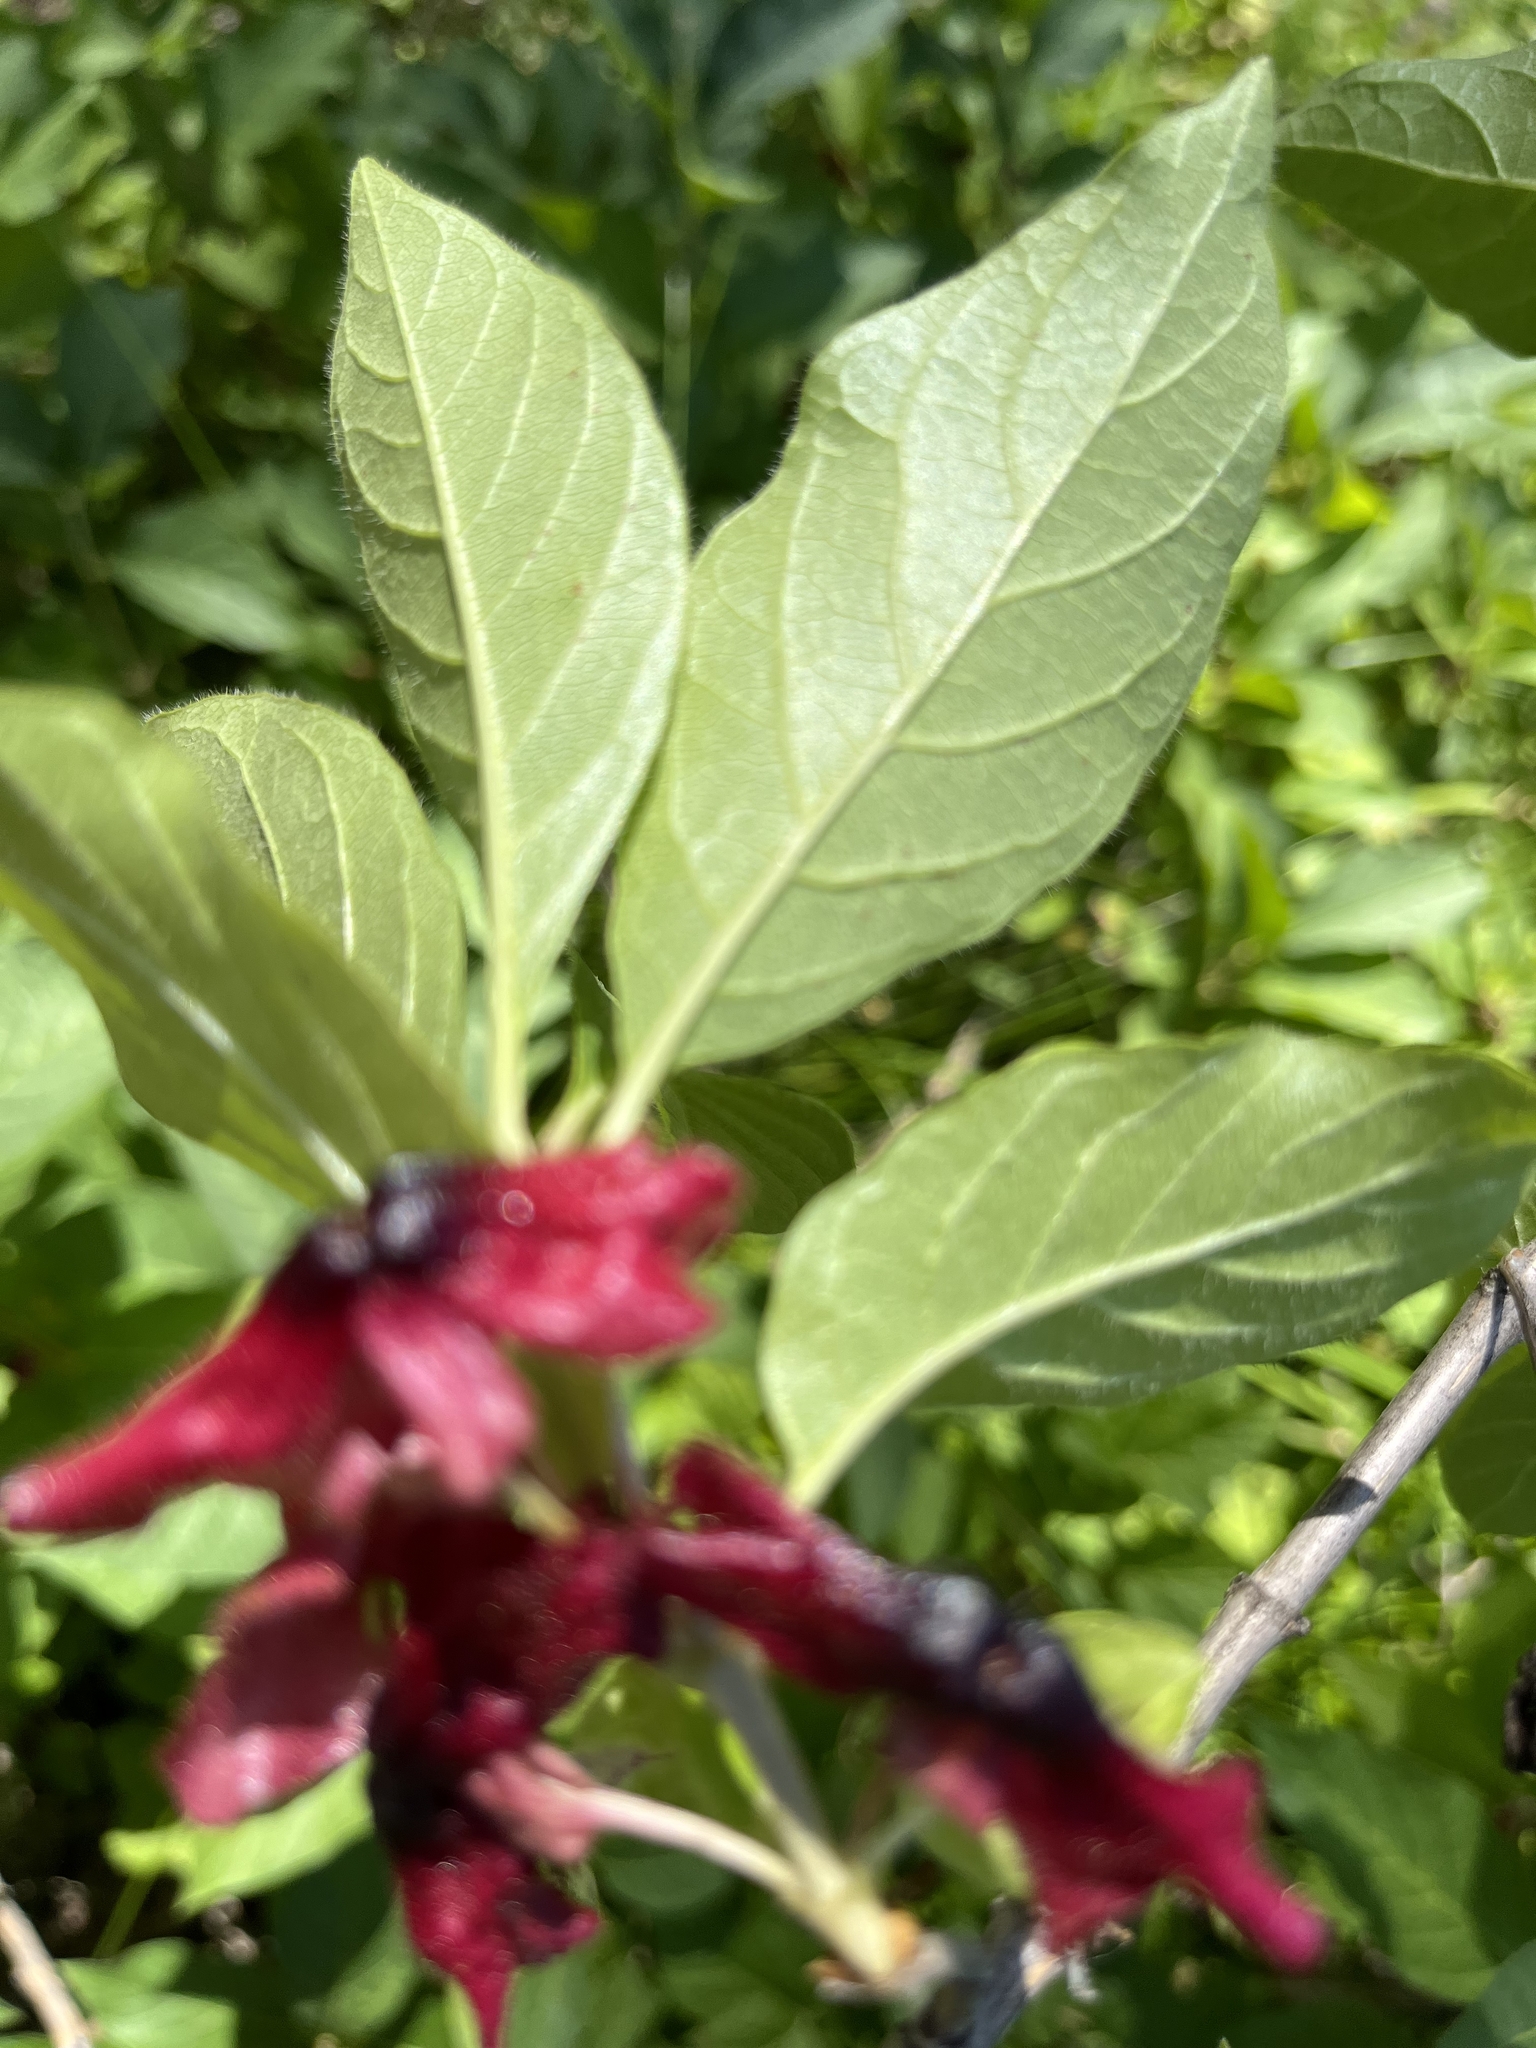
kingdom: Plantae
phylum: Tracheophyta
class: Magnoliopsida
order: Dipsacales
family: Caprifoliaceae
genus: Lonicera
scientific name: Lonicera involucrata
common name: Californian honeysuckle
